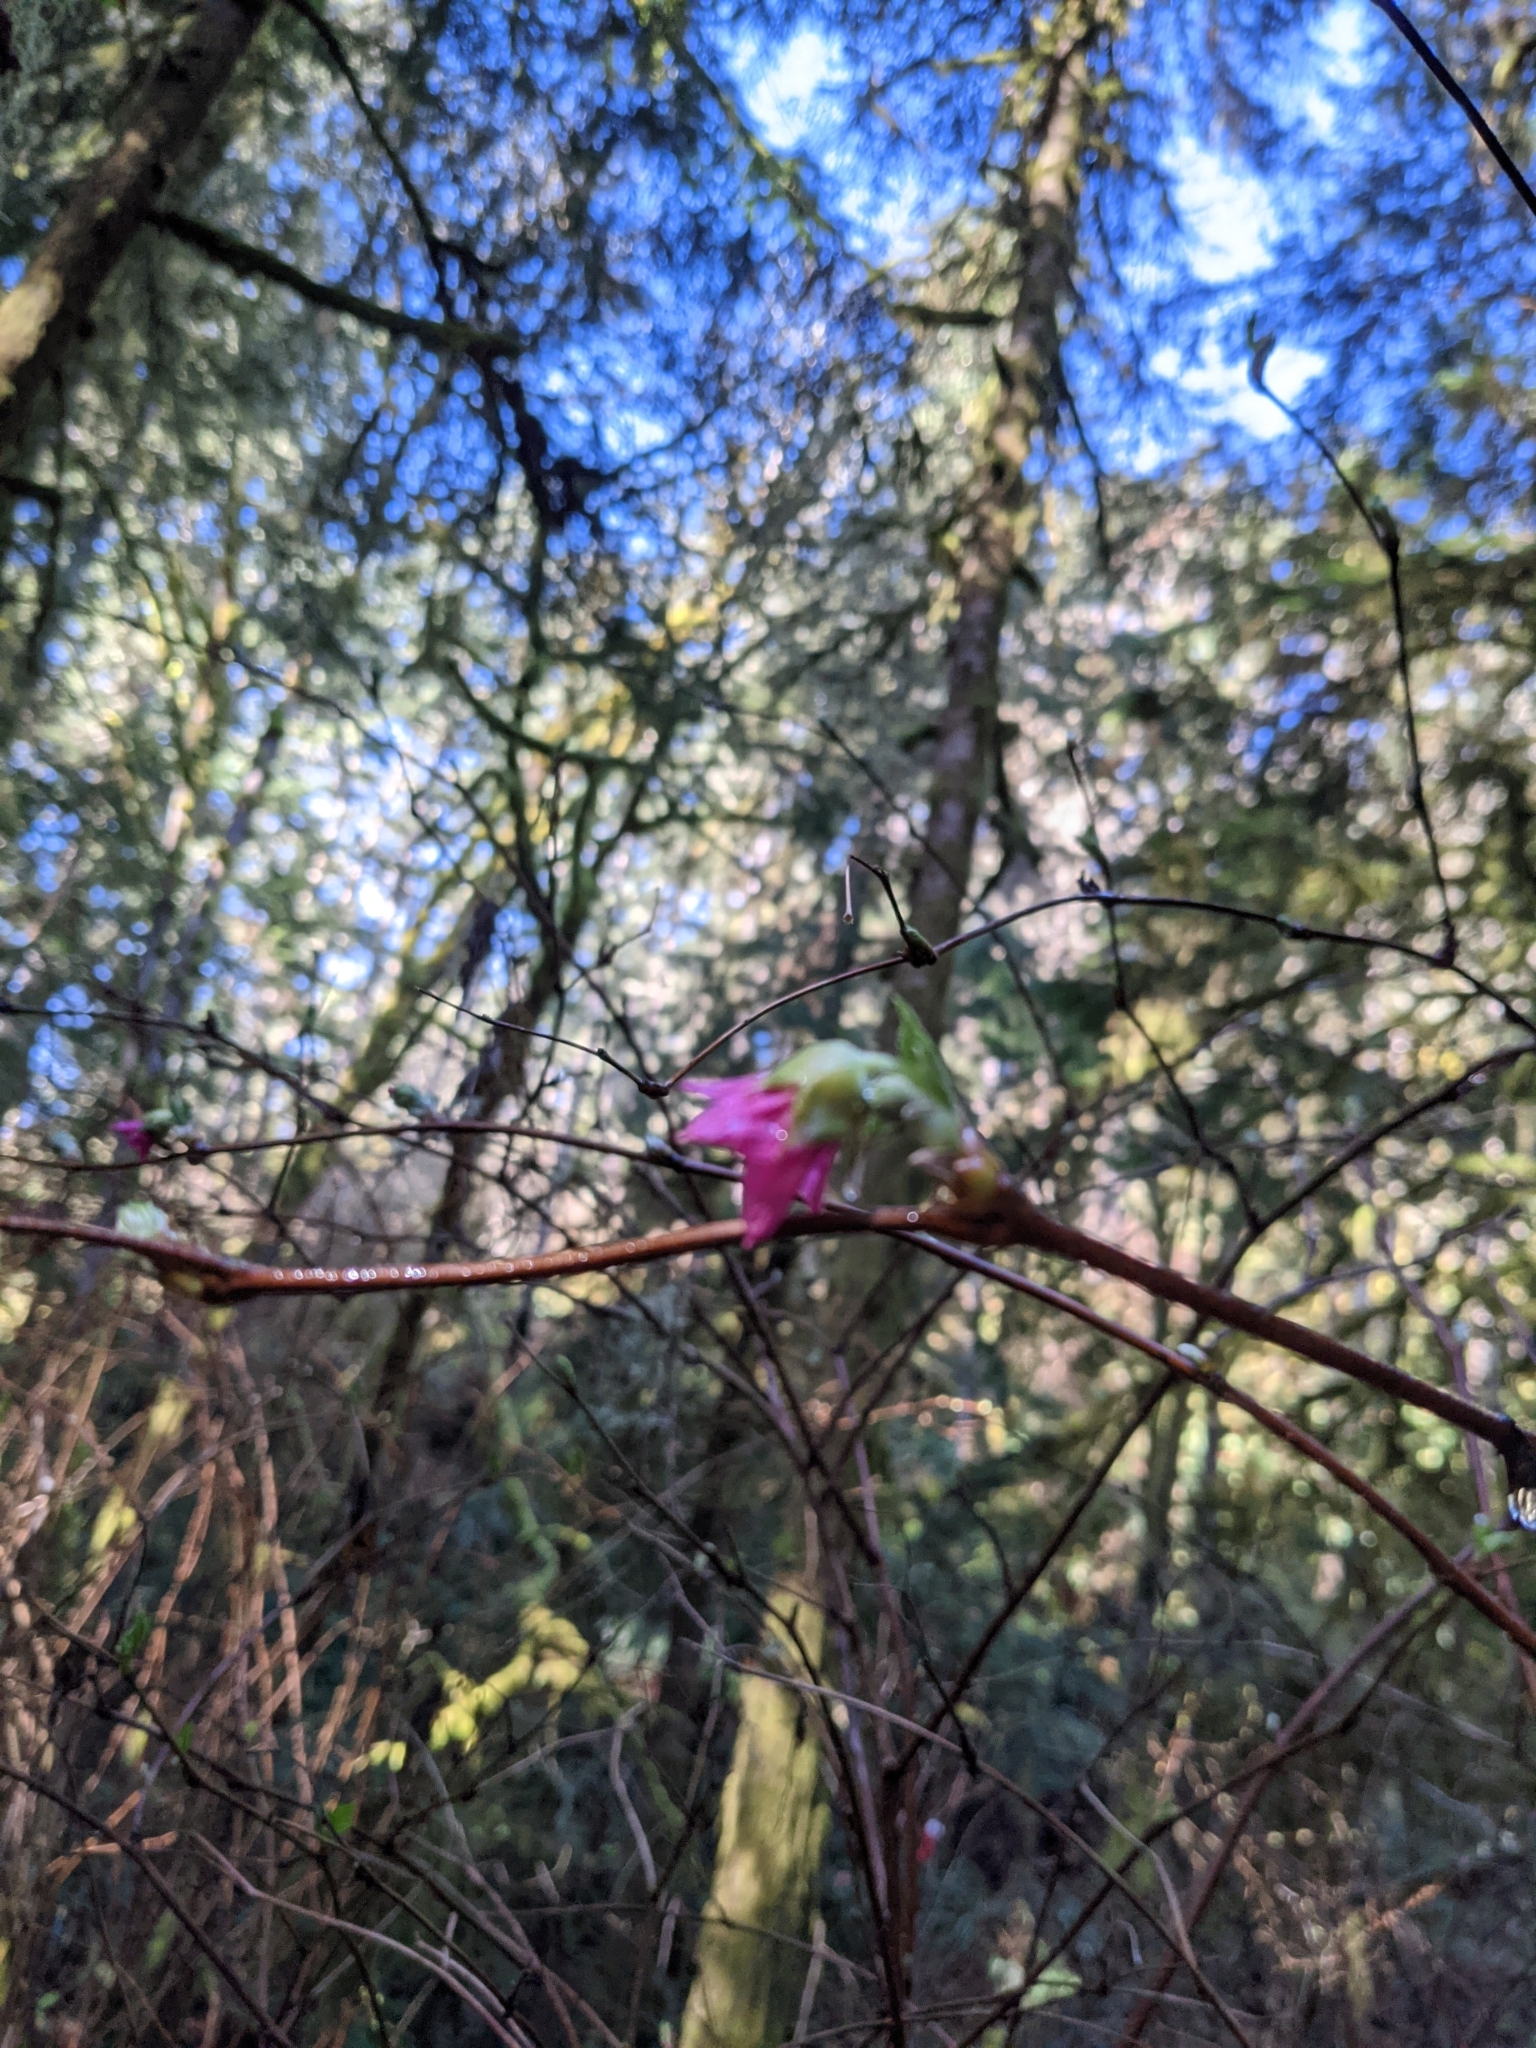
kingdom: Plantae
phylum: Tracheophyta
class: Magnoliopsida
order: Rosales
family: Rosaceae
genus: Rubus
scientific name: Rubus spectabilis
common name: Salmonberry
